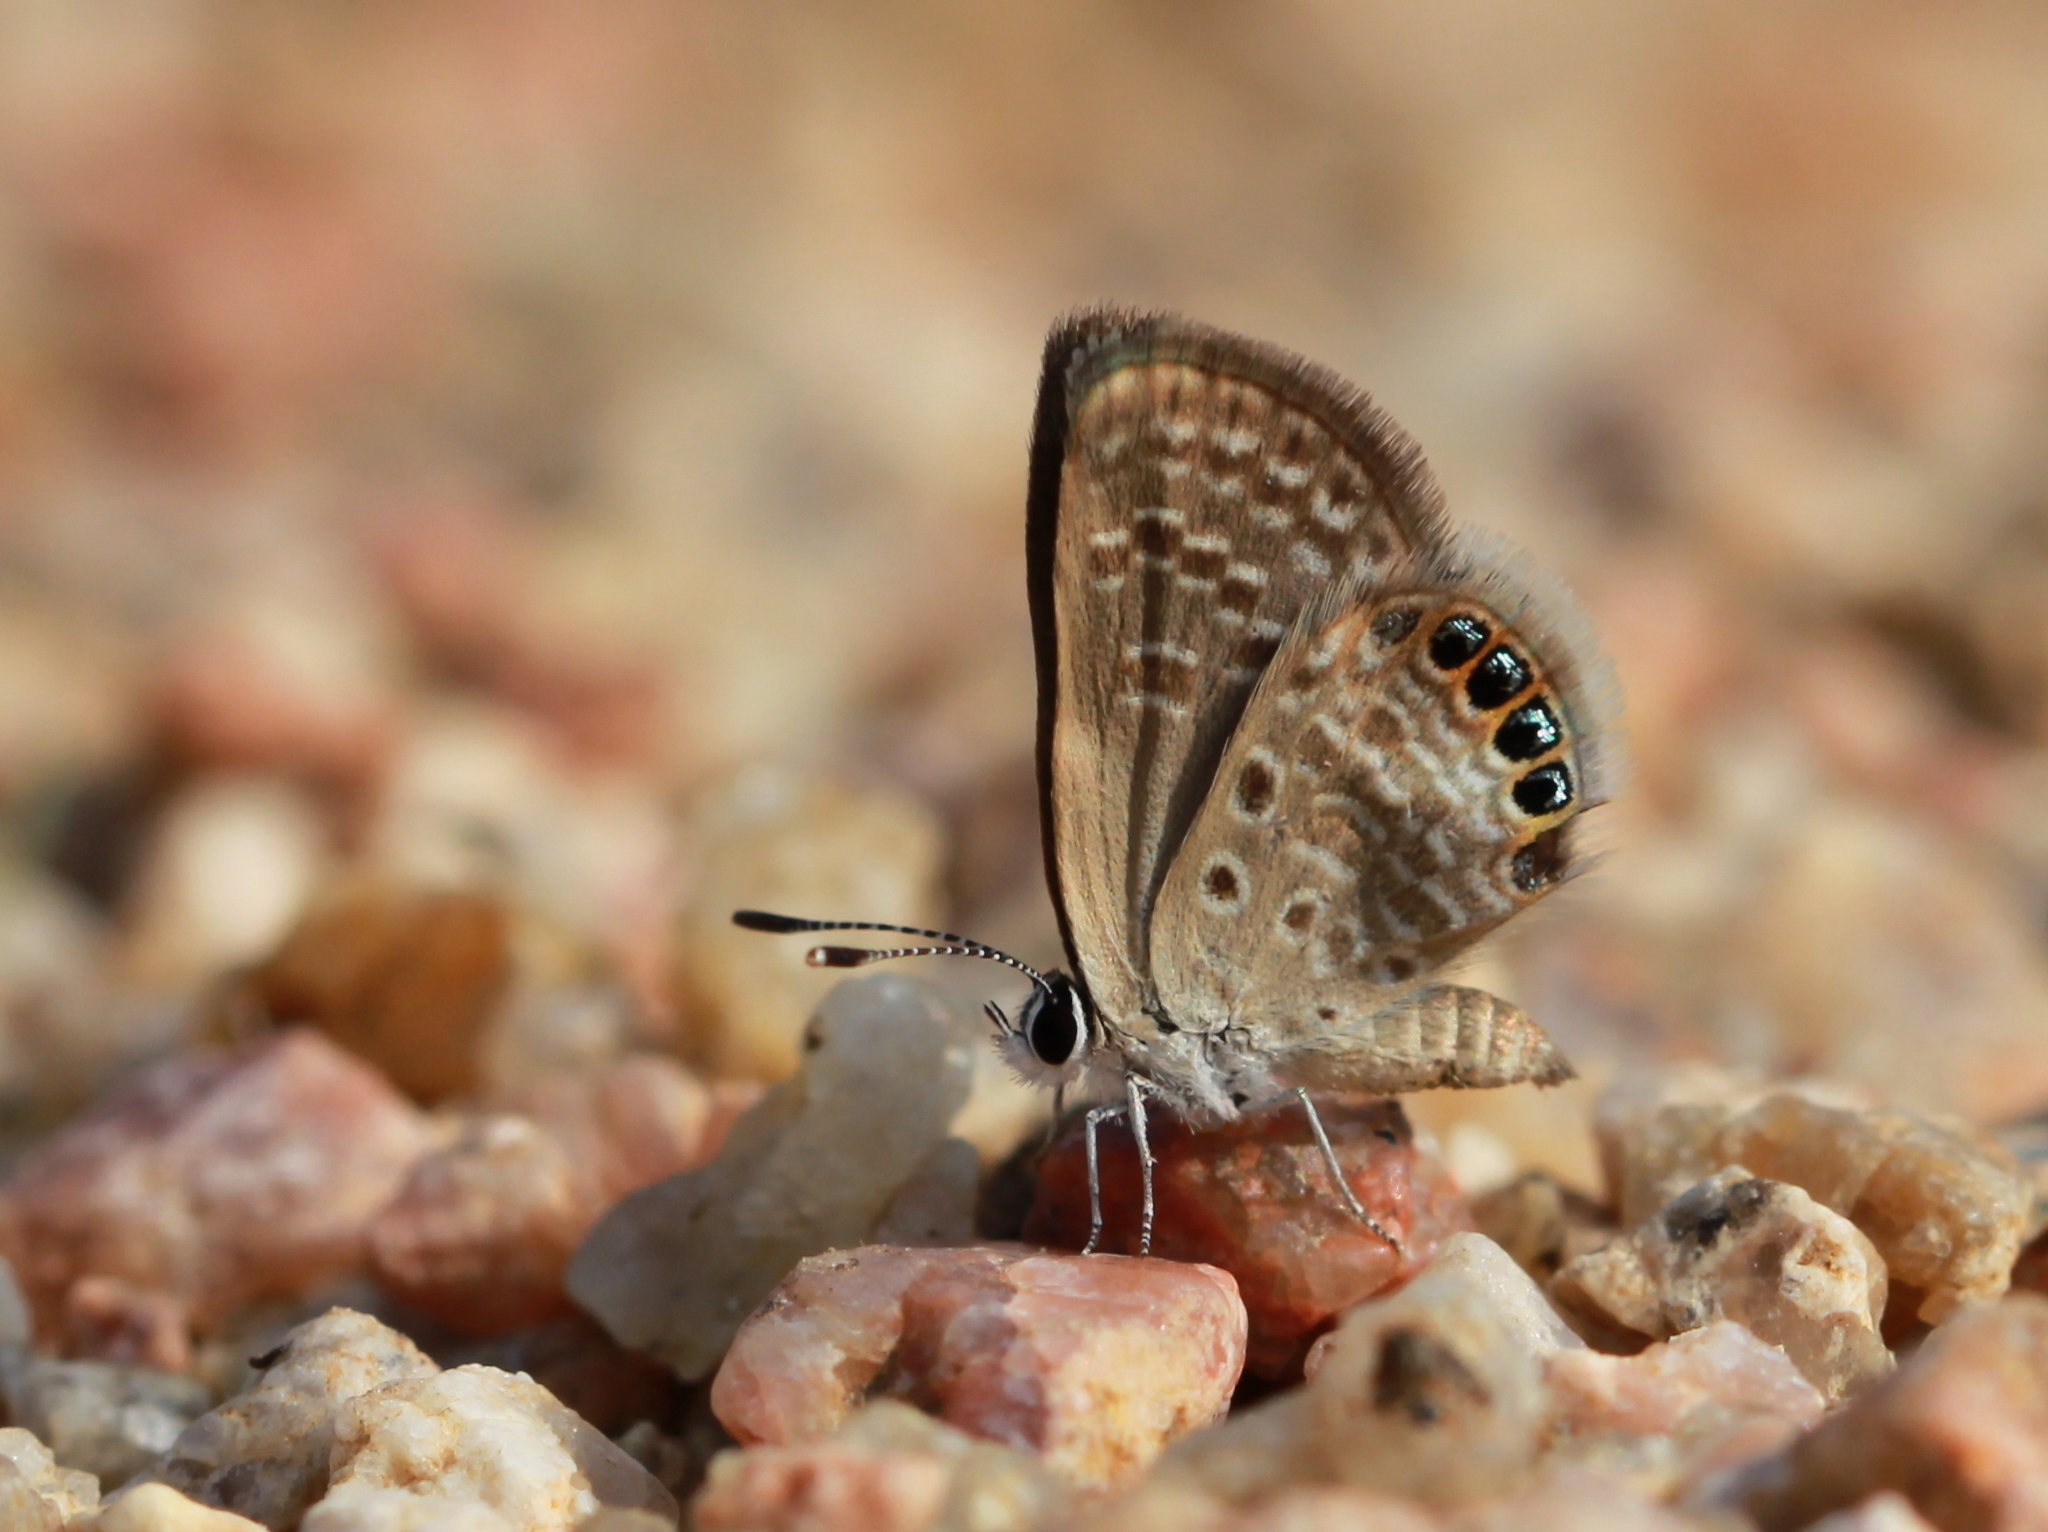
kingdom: Animalia
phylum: Arthropoda
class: Insecta
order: Lepidoptera
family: Lycaenidae
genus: Freyeria
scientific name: Freyeria putli
